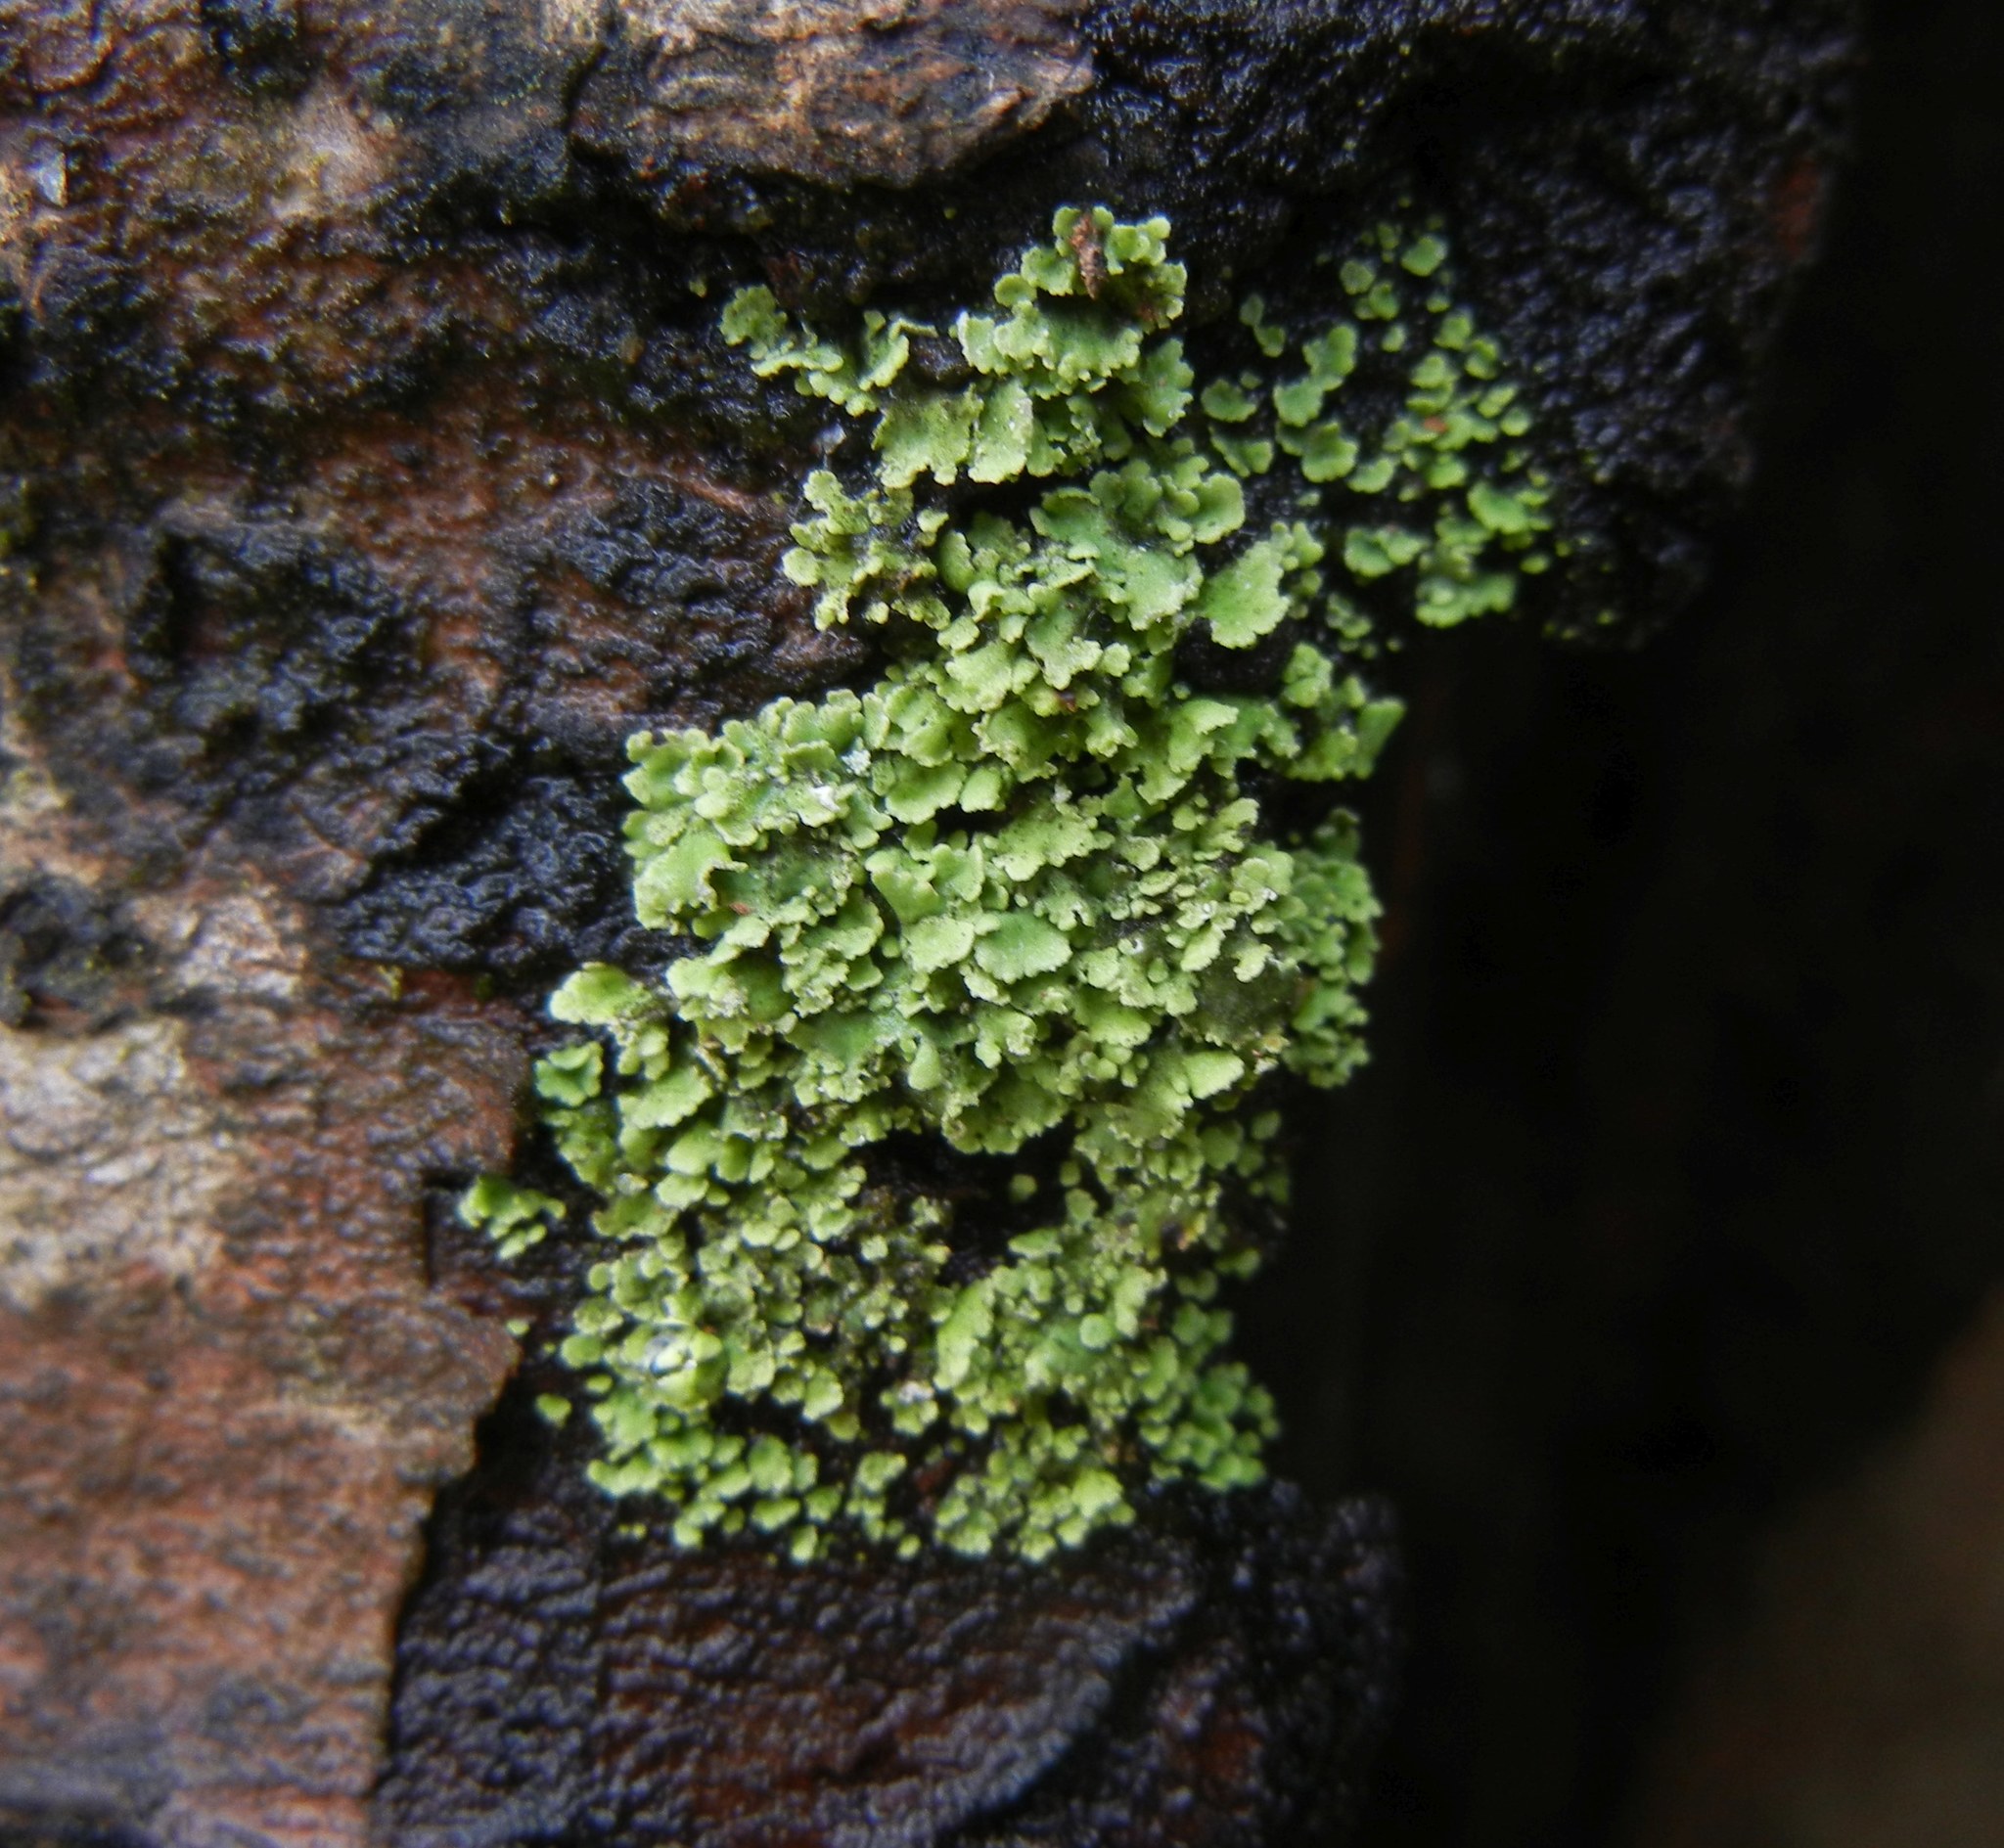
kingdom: Fungi
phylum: Ascomycota
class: Lecanoromycetes
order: Lecanorales
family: Cladoniaceae
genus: Cladonia
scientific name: Cladonia
